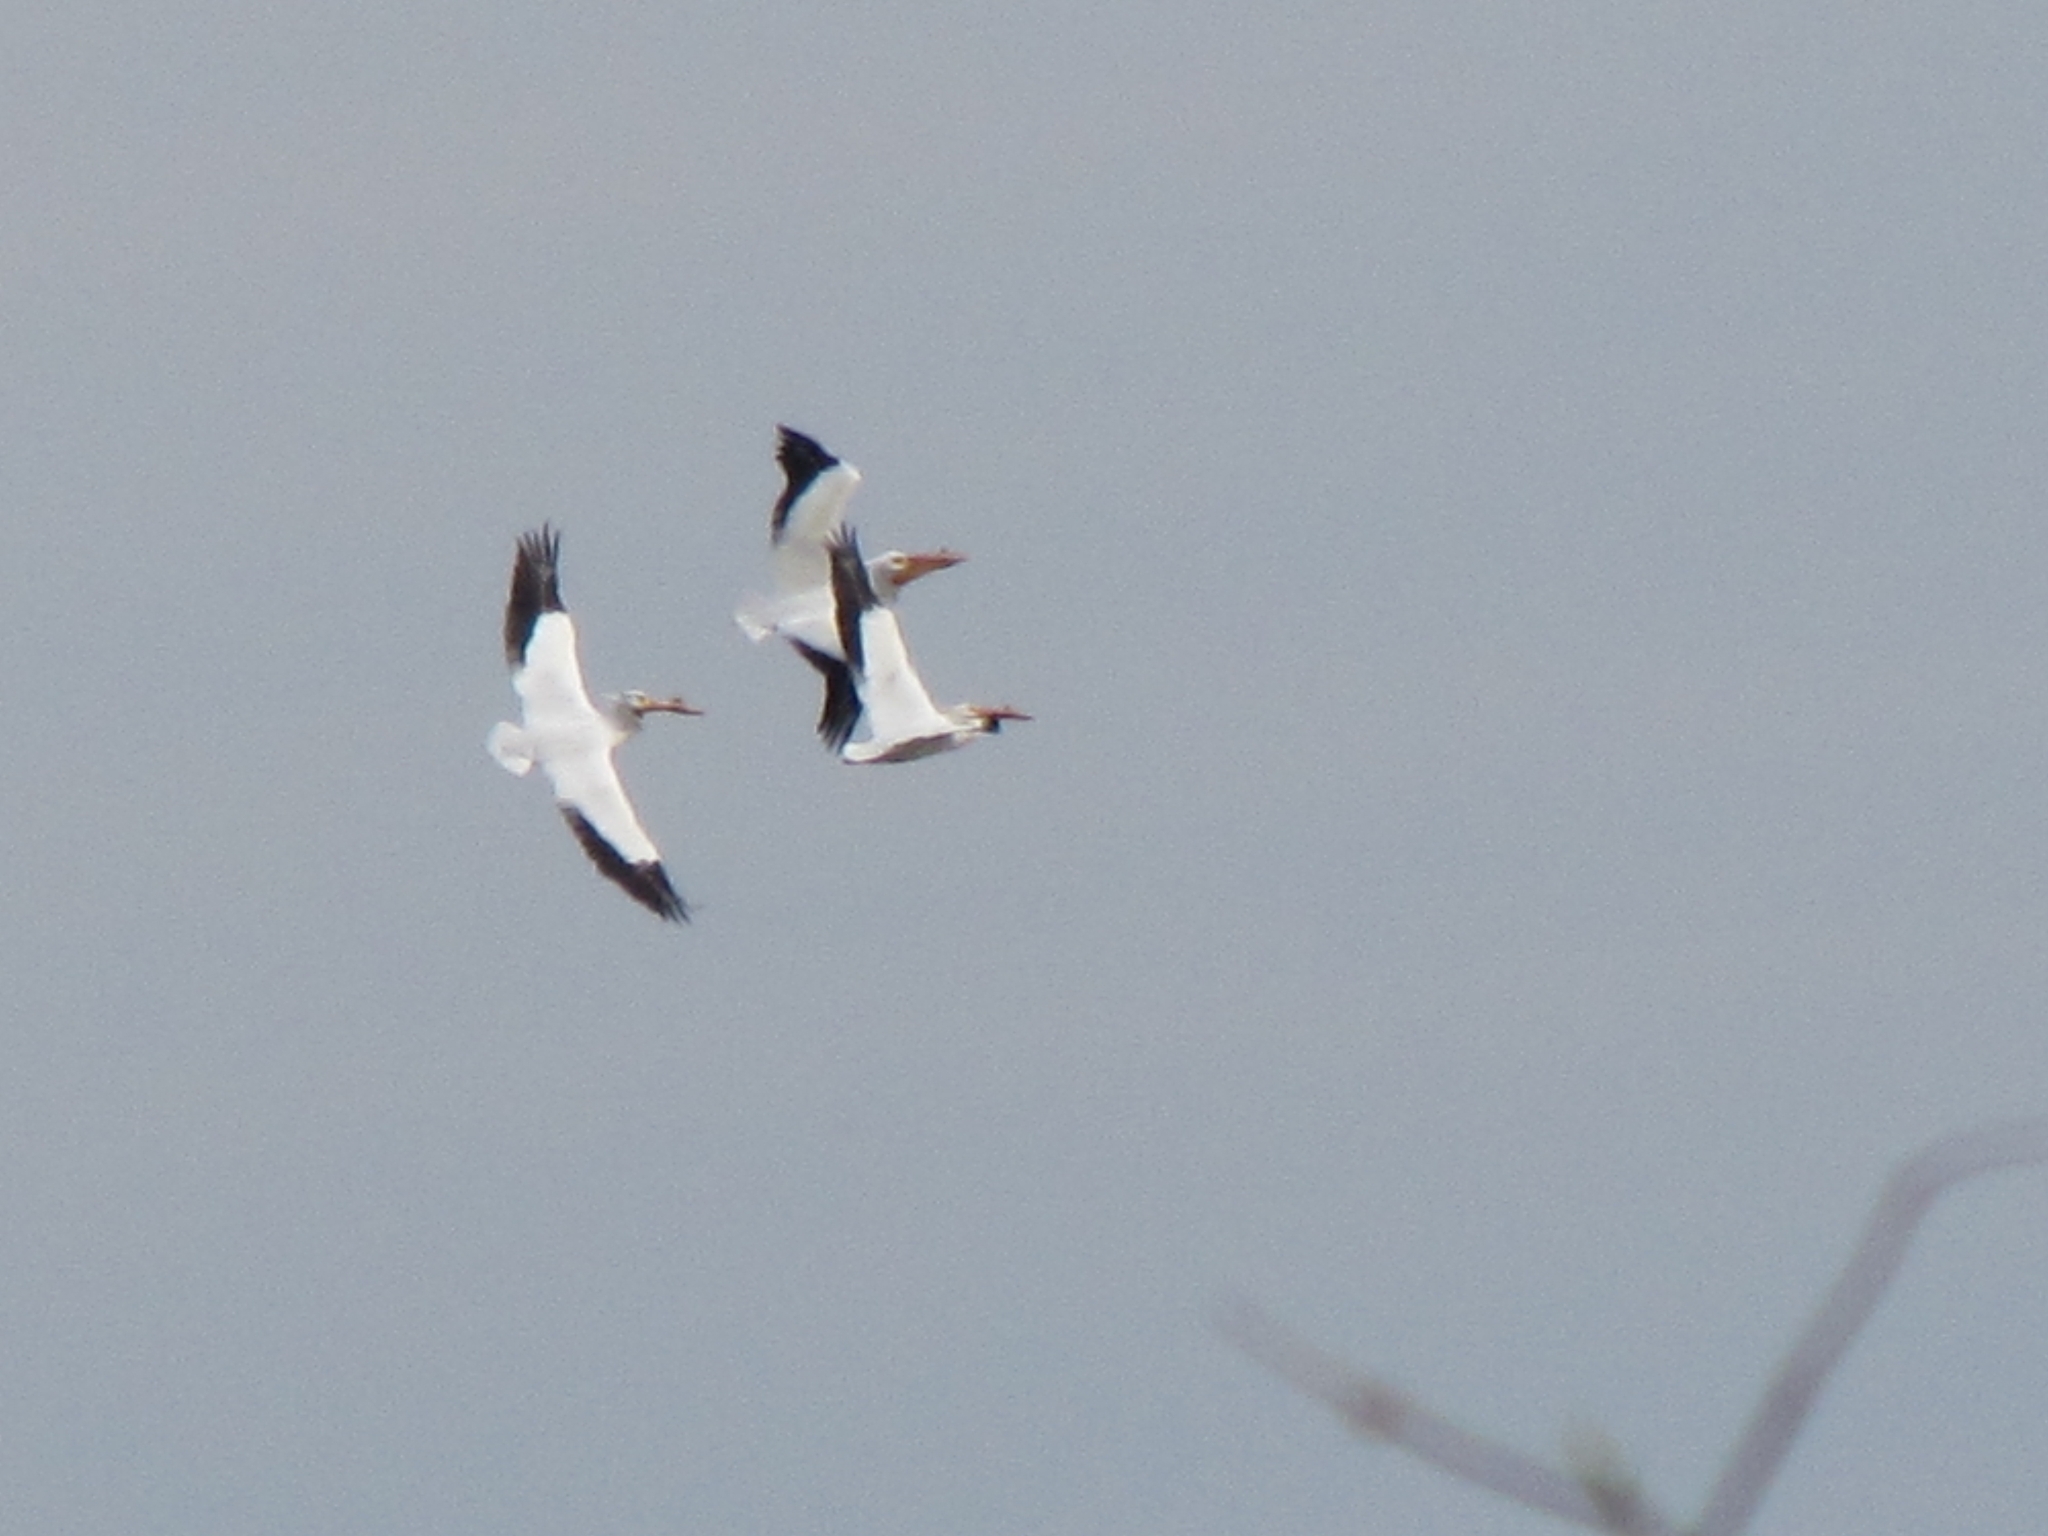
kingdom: Animalia
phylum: Chordata
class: Aves
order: Pelecaniformes
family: Pelecanidae
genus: Pelecanus
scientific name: Pelecanus erythrorhynchos
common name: American white pelican
